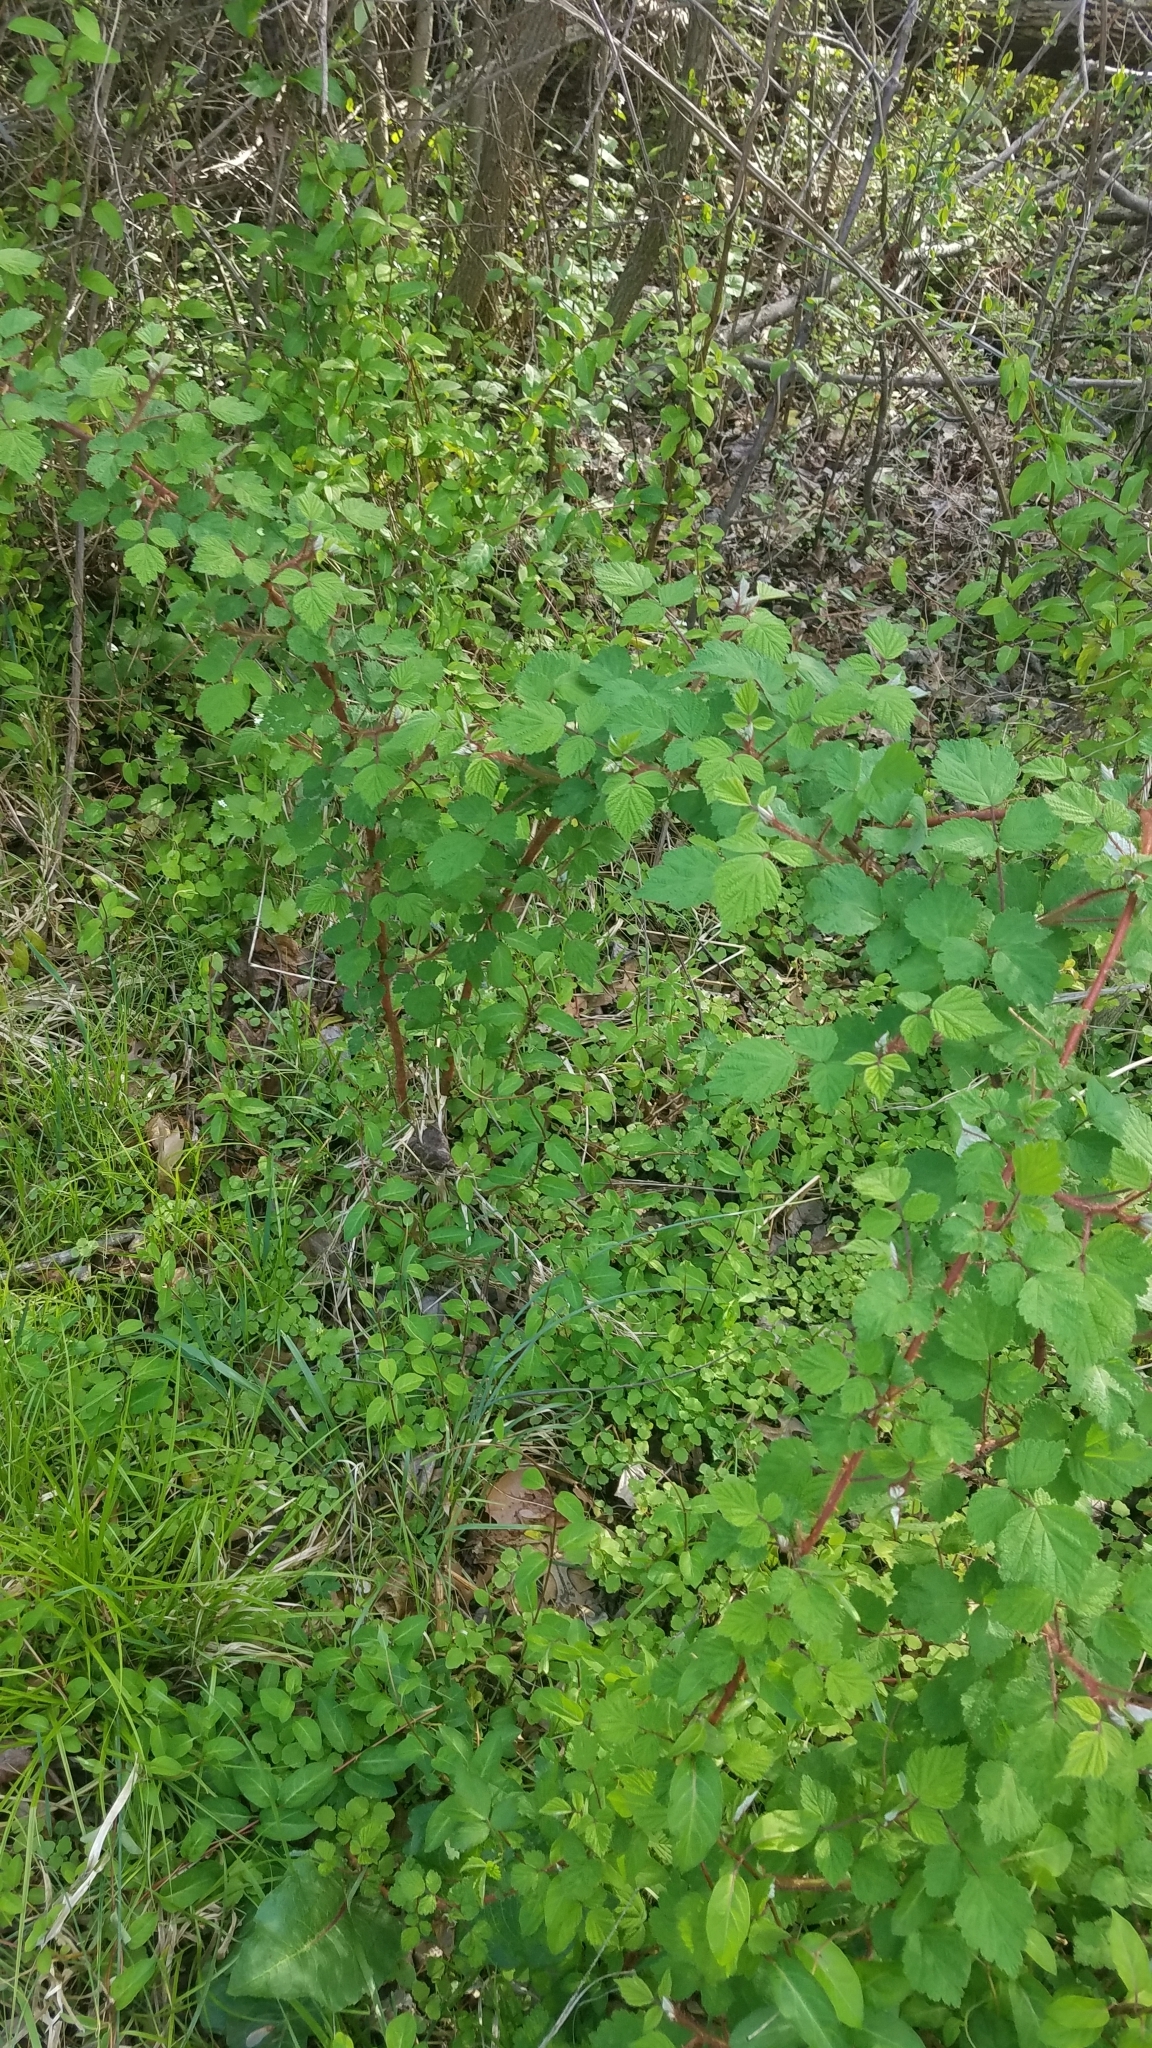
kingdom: Plantae
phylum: Tracheophyta
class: Magnoliopsida
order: Rosales
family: Rosaceae
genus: Rubus
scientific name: Rubus phoenicolasius
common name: Japanese wineberry
